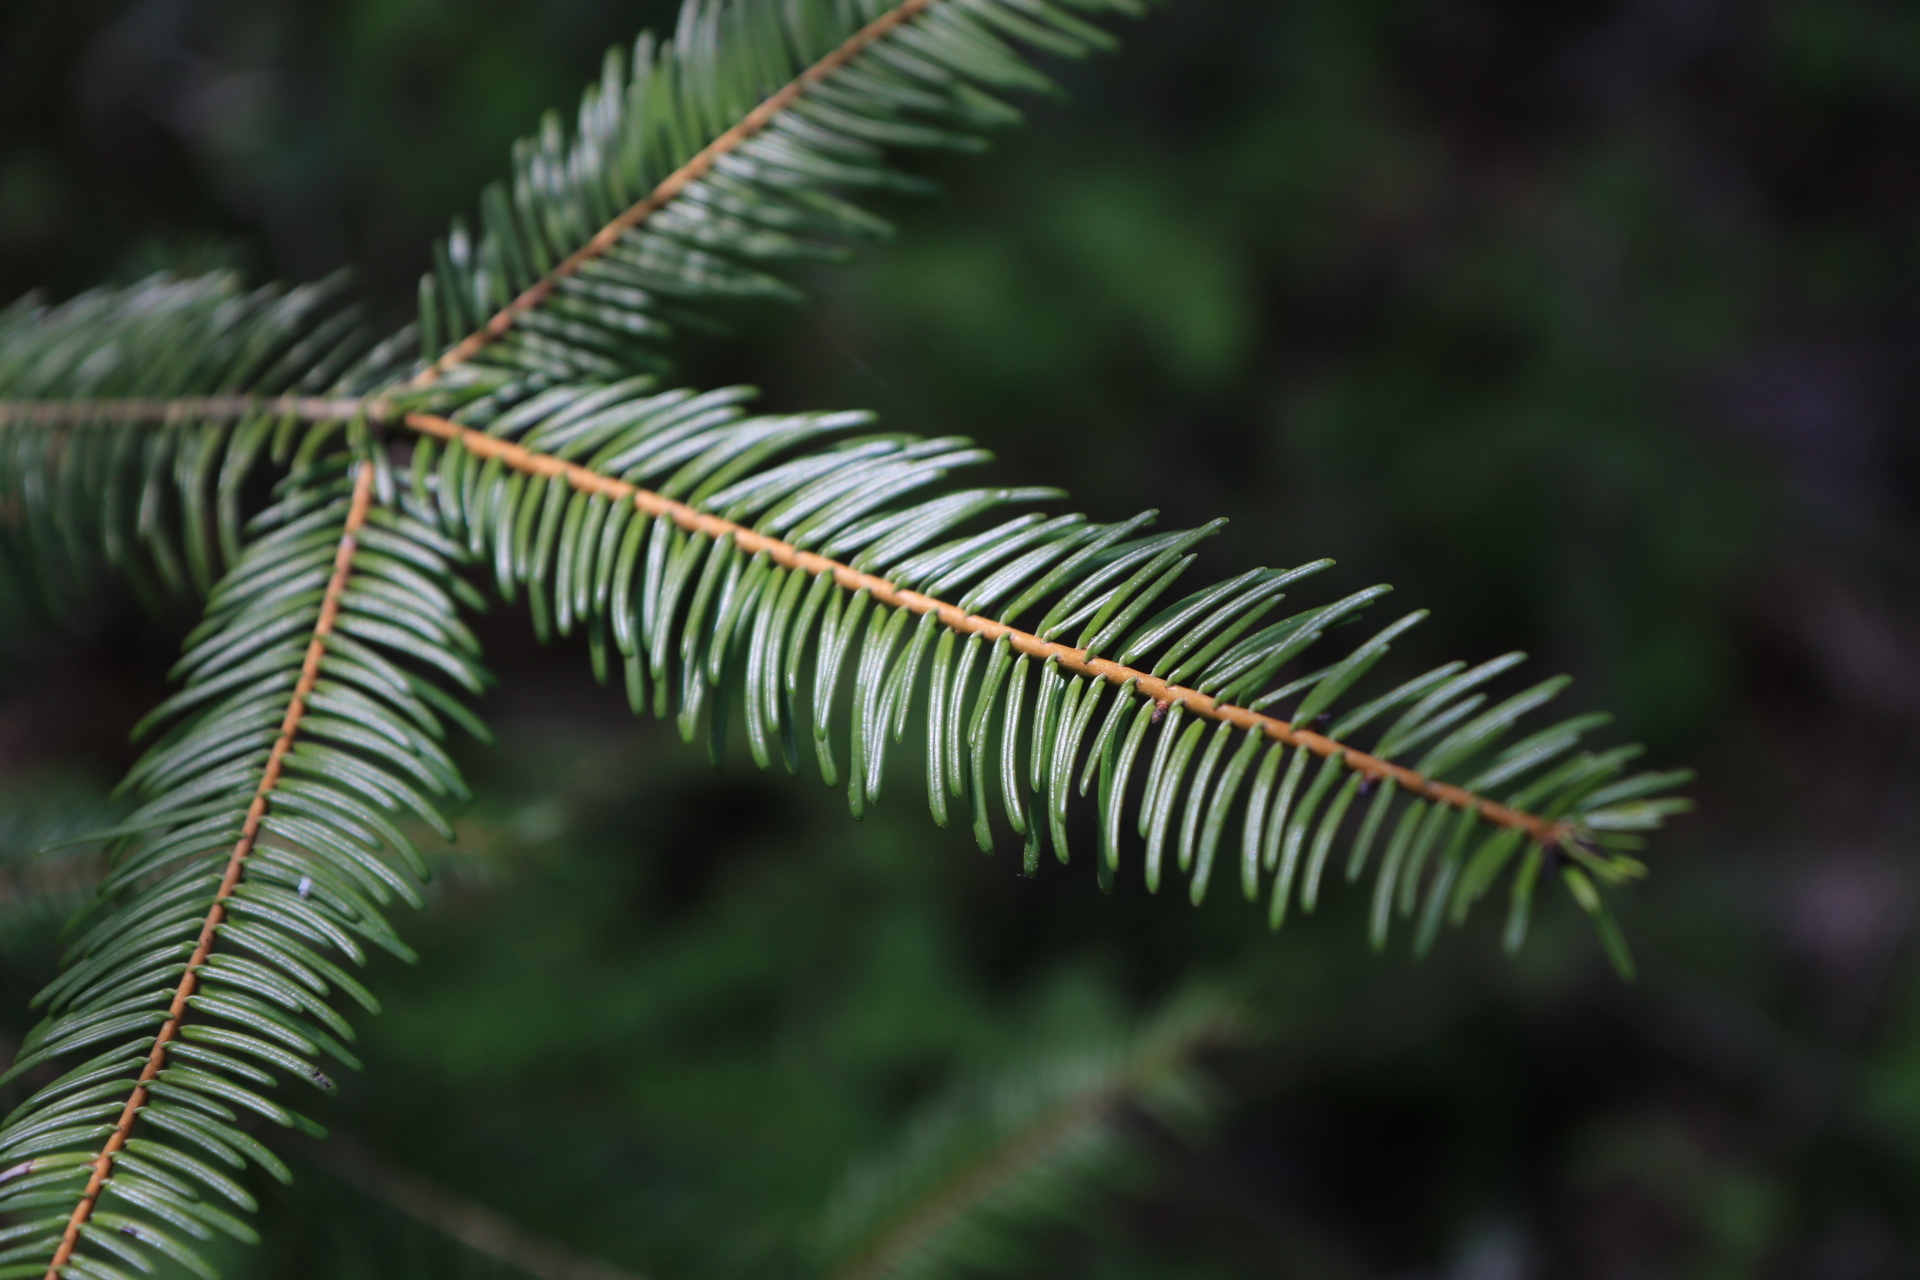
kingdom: Plantae
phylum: Tracheophyta
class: Pinopsida
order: Pinales
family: Pinaceae
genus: Abies
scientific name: Abies grandis
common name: Giant fir
